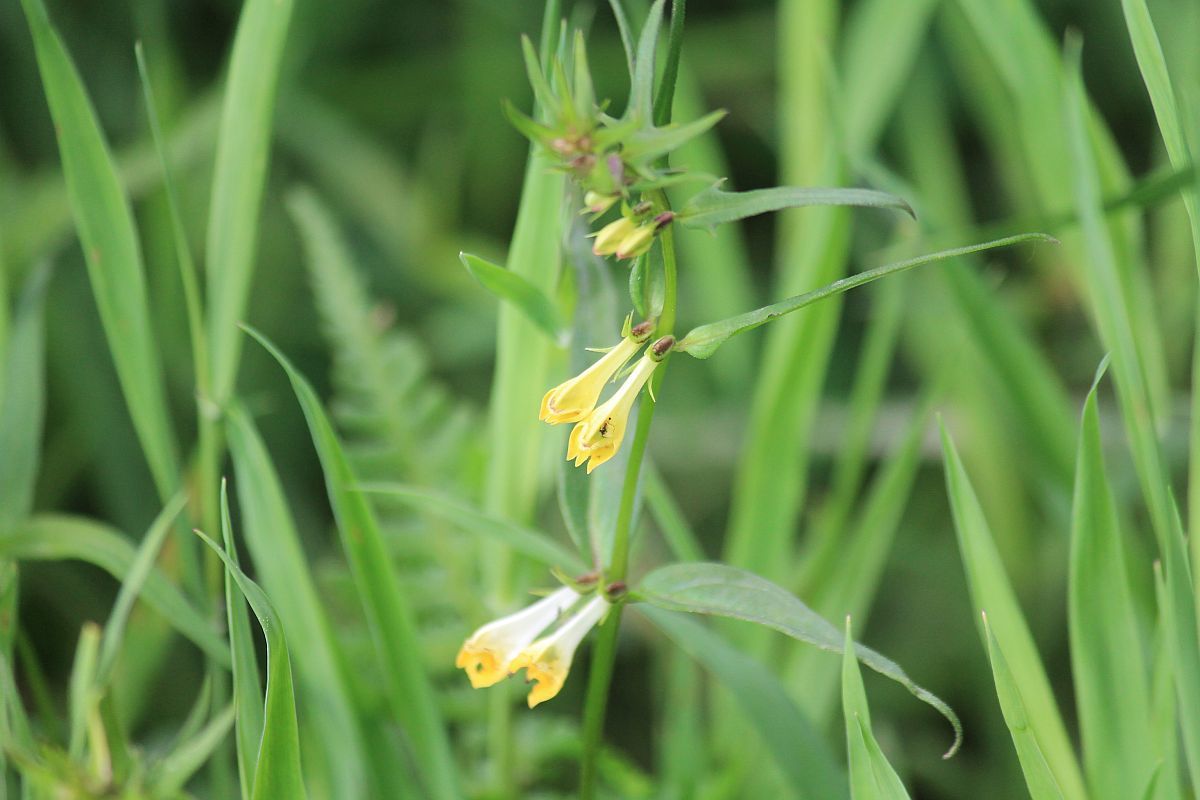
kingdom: Plantae
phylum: Tracheophyta
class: Magnoliopsida
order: Lamiales
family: Orobanchaceae
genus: Melampyrum
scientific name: Melampyrum pratense
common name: Common cow-wheat
